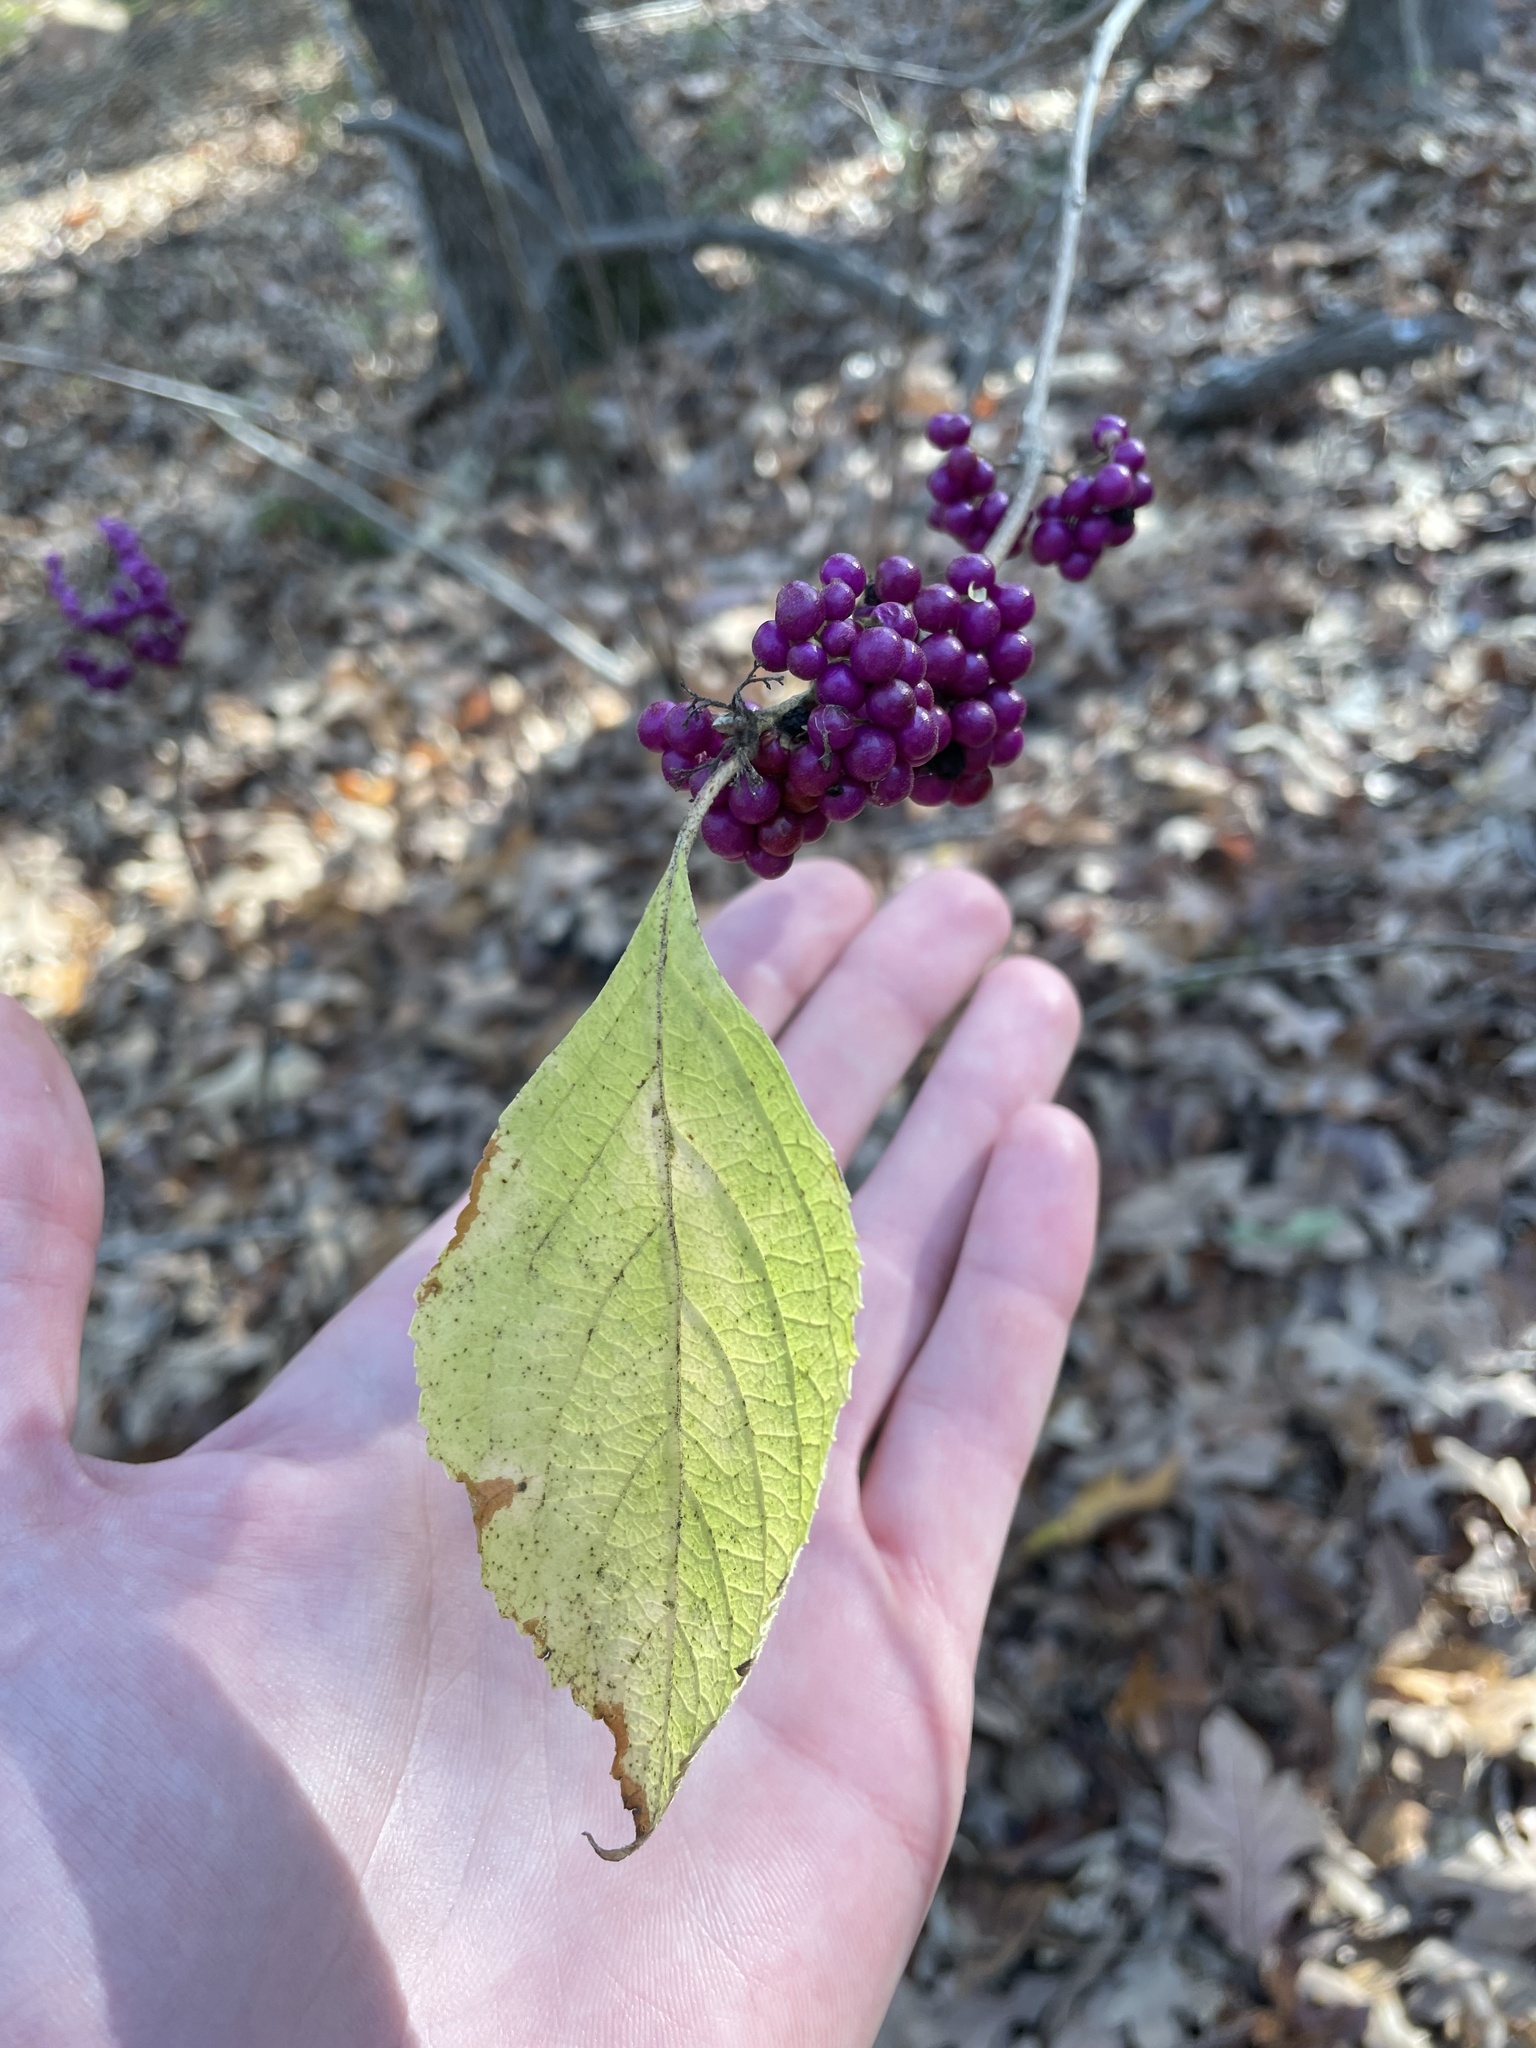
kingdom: Plantae
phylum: Tracheophyta
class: Magnoliopsida
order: Lamiales
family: Lamiaceae
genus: Callicarpa
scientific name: Callicarpa americana
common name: American beautyberry
